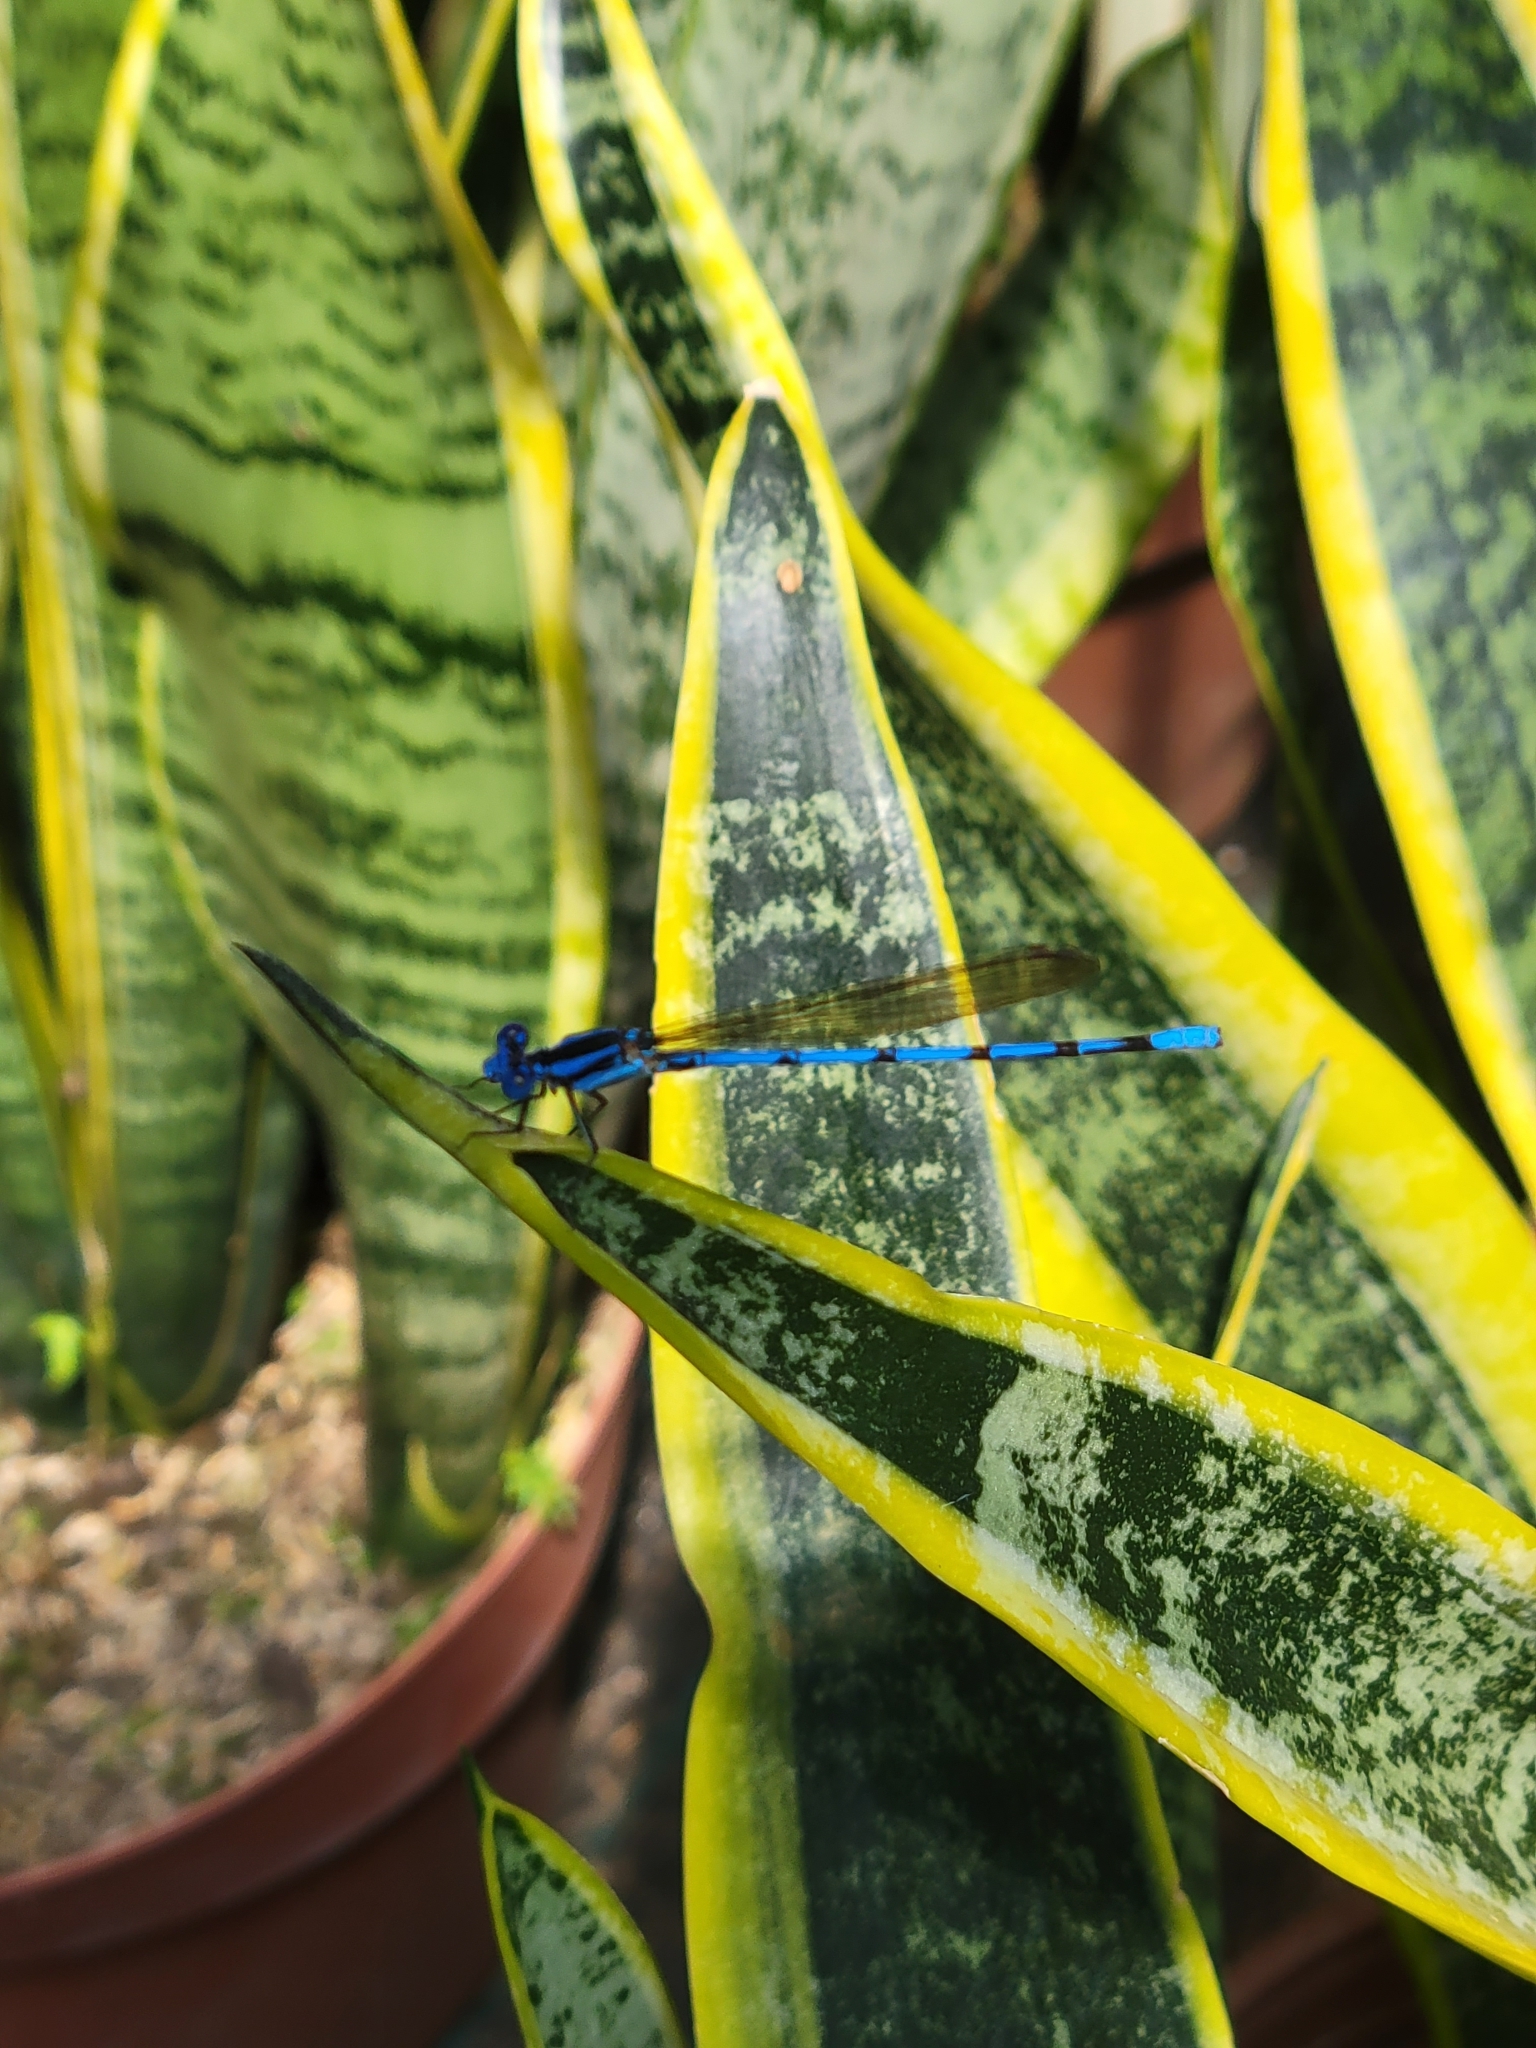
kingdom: Animalia
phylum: Arthropoda
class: Insecta
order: Odonata
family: Coenagrionidae
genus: Argia
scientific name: Argia anceps
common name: Cerulean dancer
